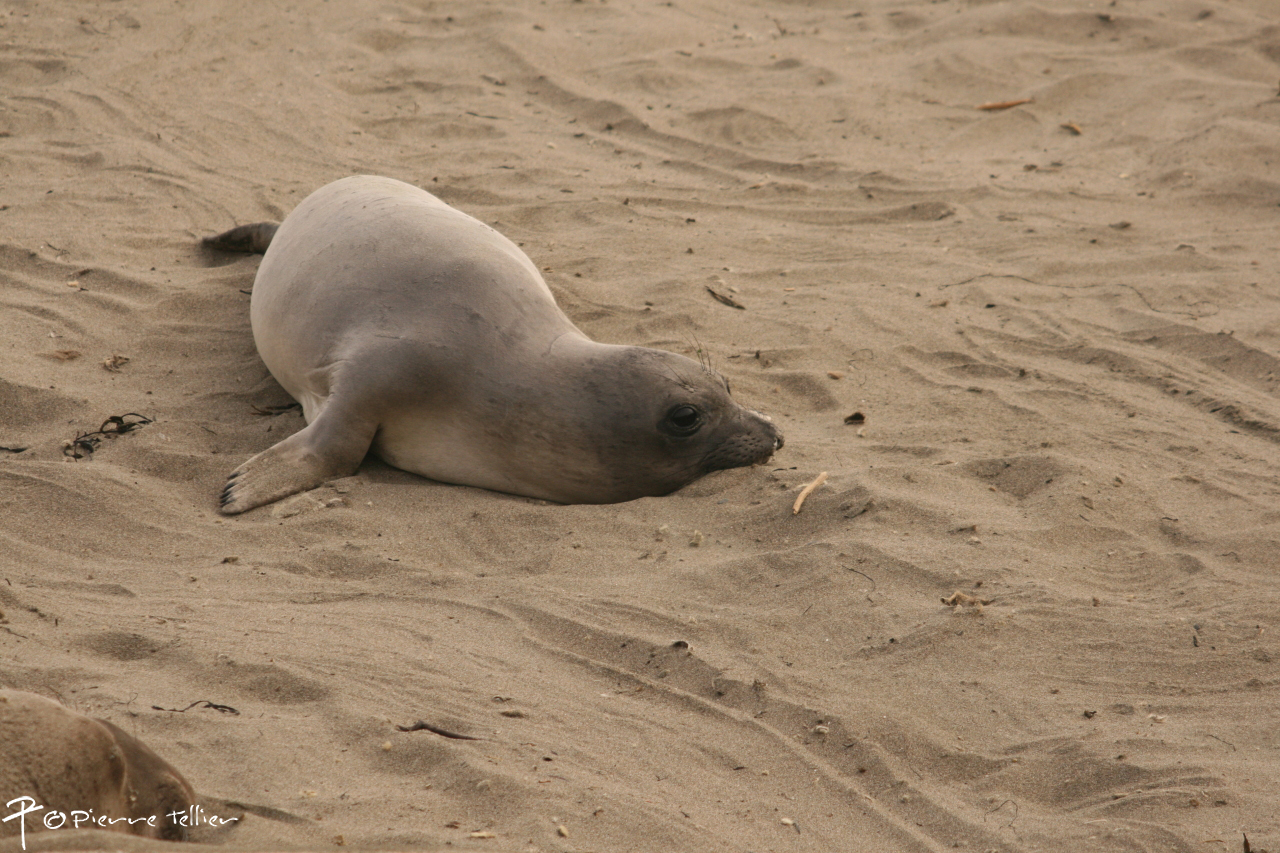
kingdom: Animalia
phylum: Chordata
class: Mammalia
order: Carnivora
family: Phocidae
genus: Mirounga
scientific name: Mirounga angustirostris
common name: Northern elephant seal
